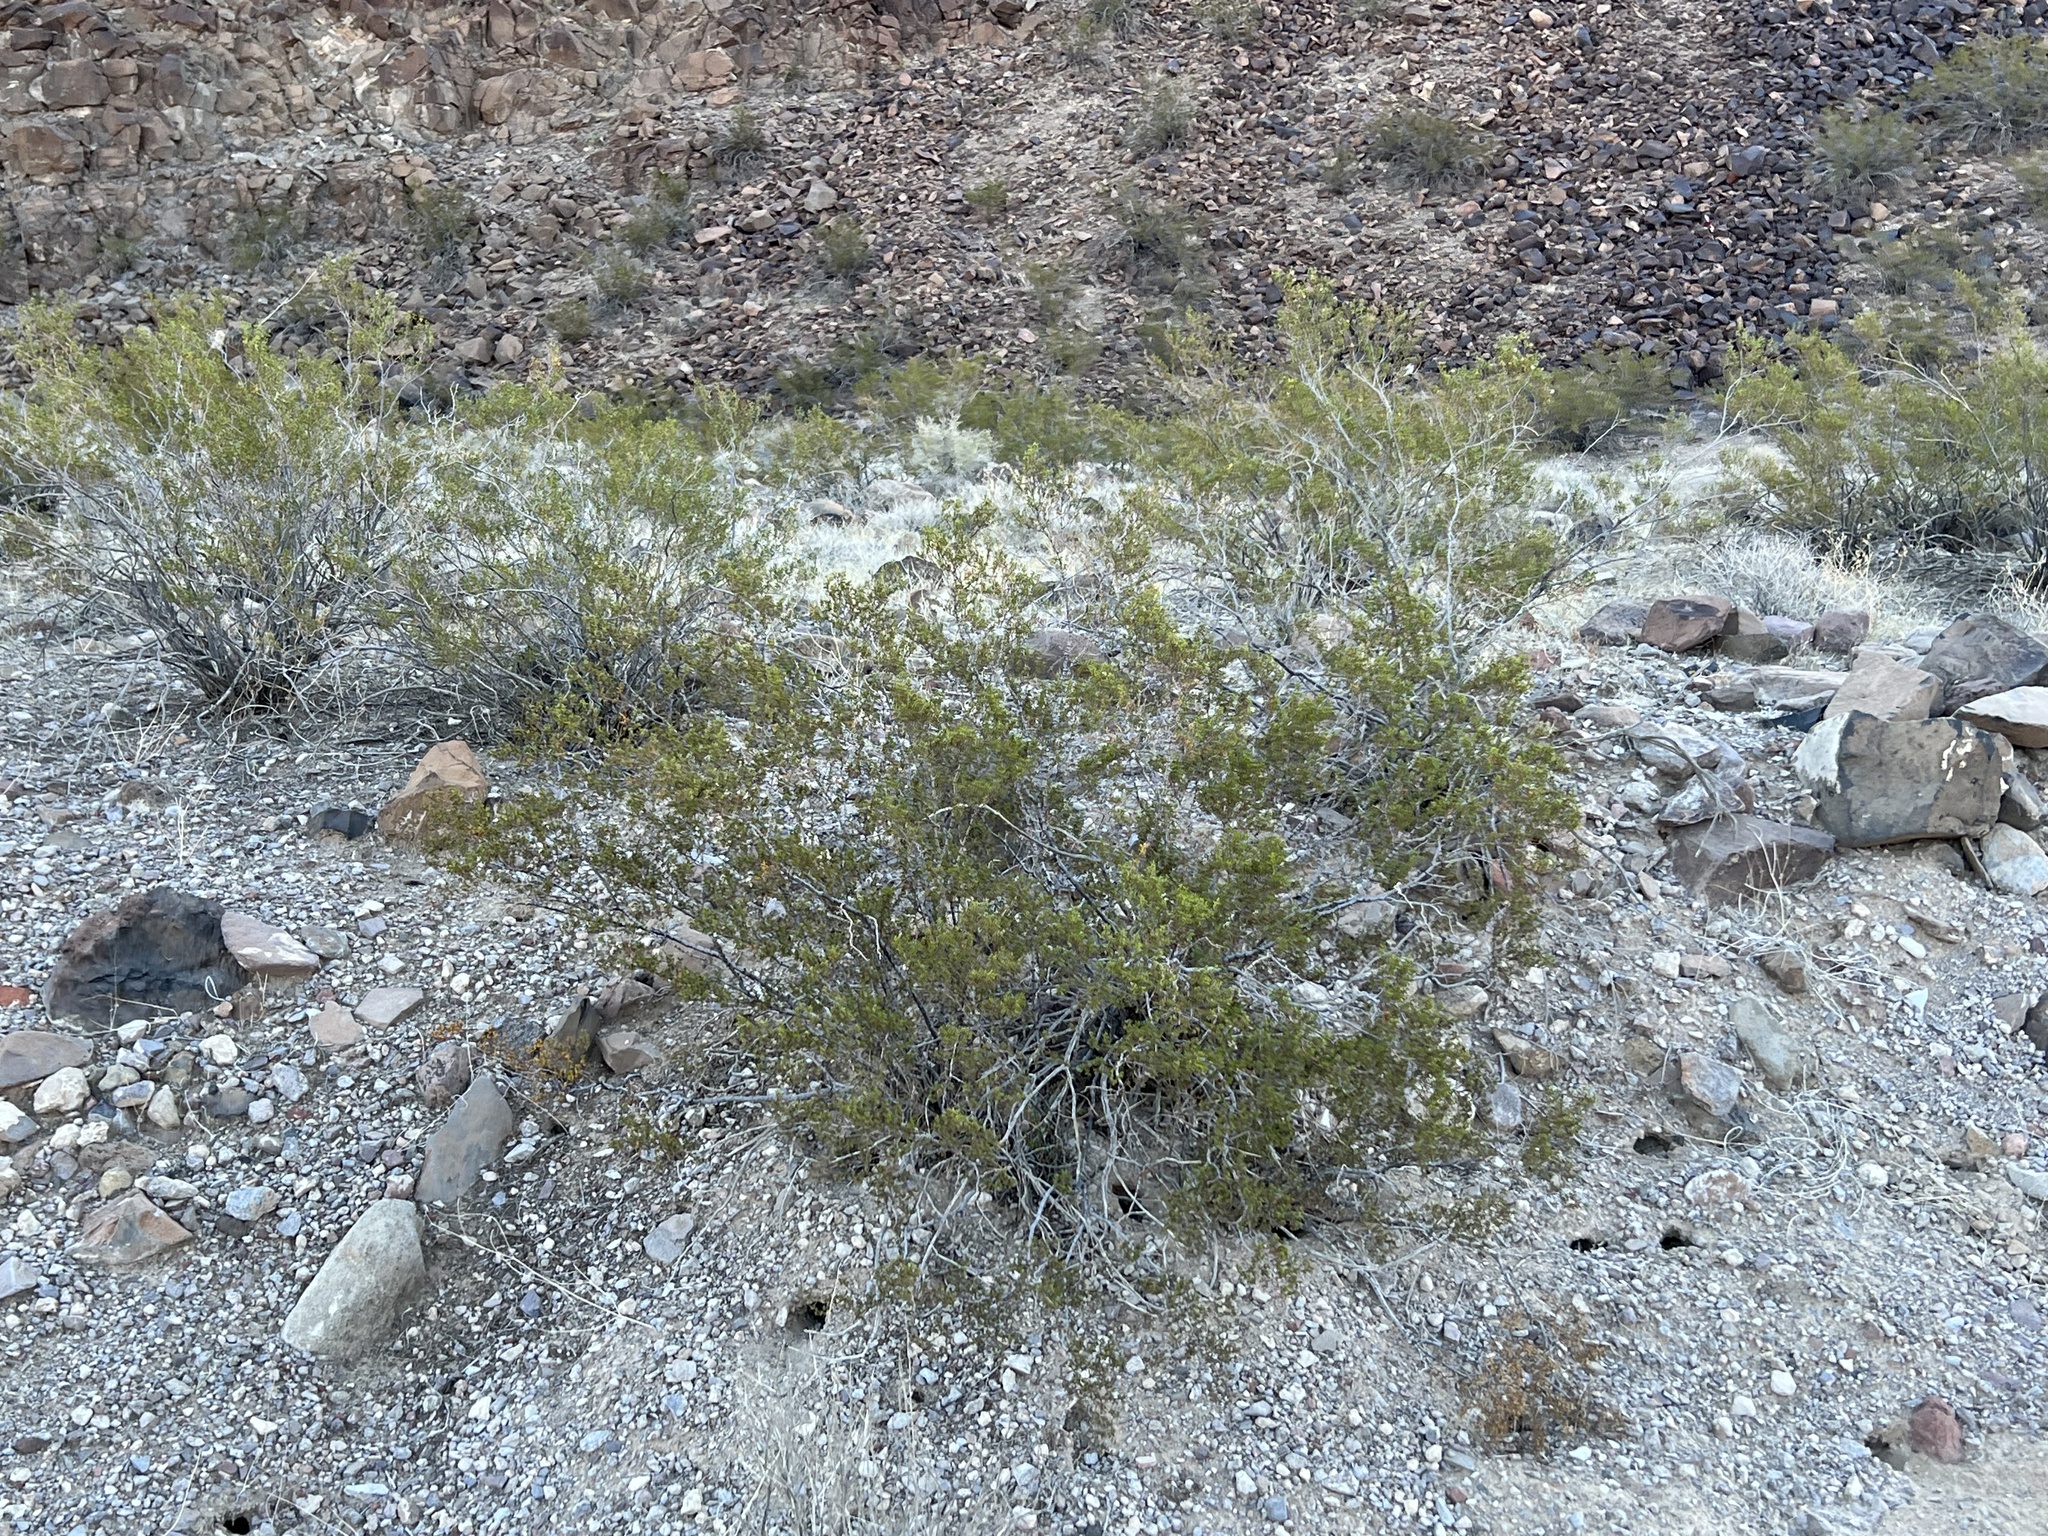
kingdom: Plantae
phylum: Tracheophyta
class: Magnoliopsida
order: Zygophyllales
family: Zygophyllaceae
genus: Larrea
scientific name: Larrea tridentata
